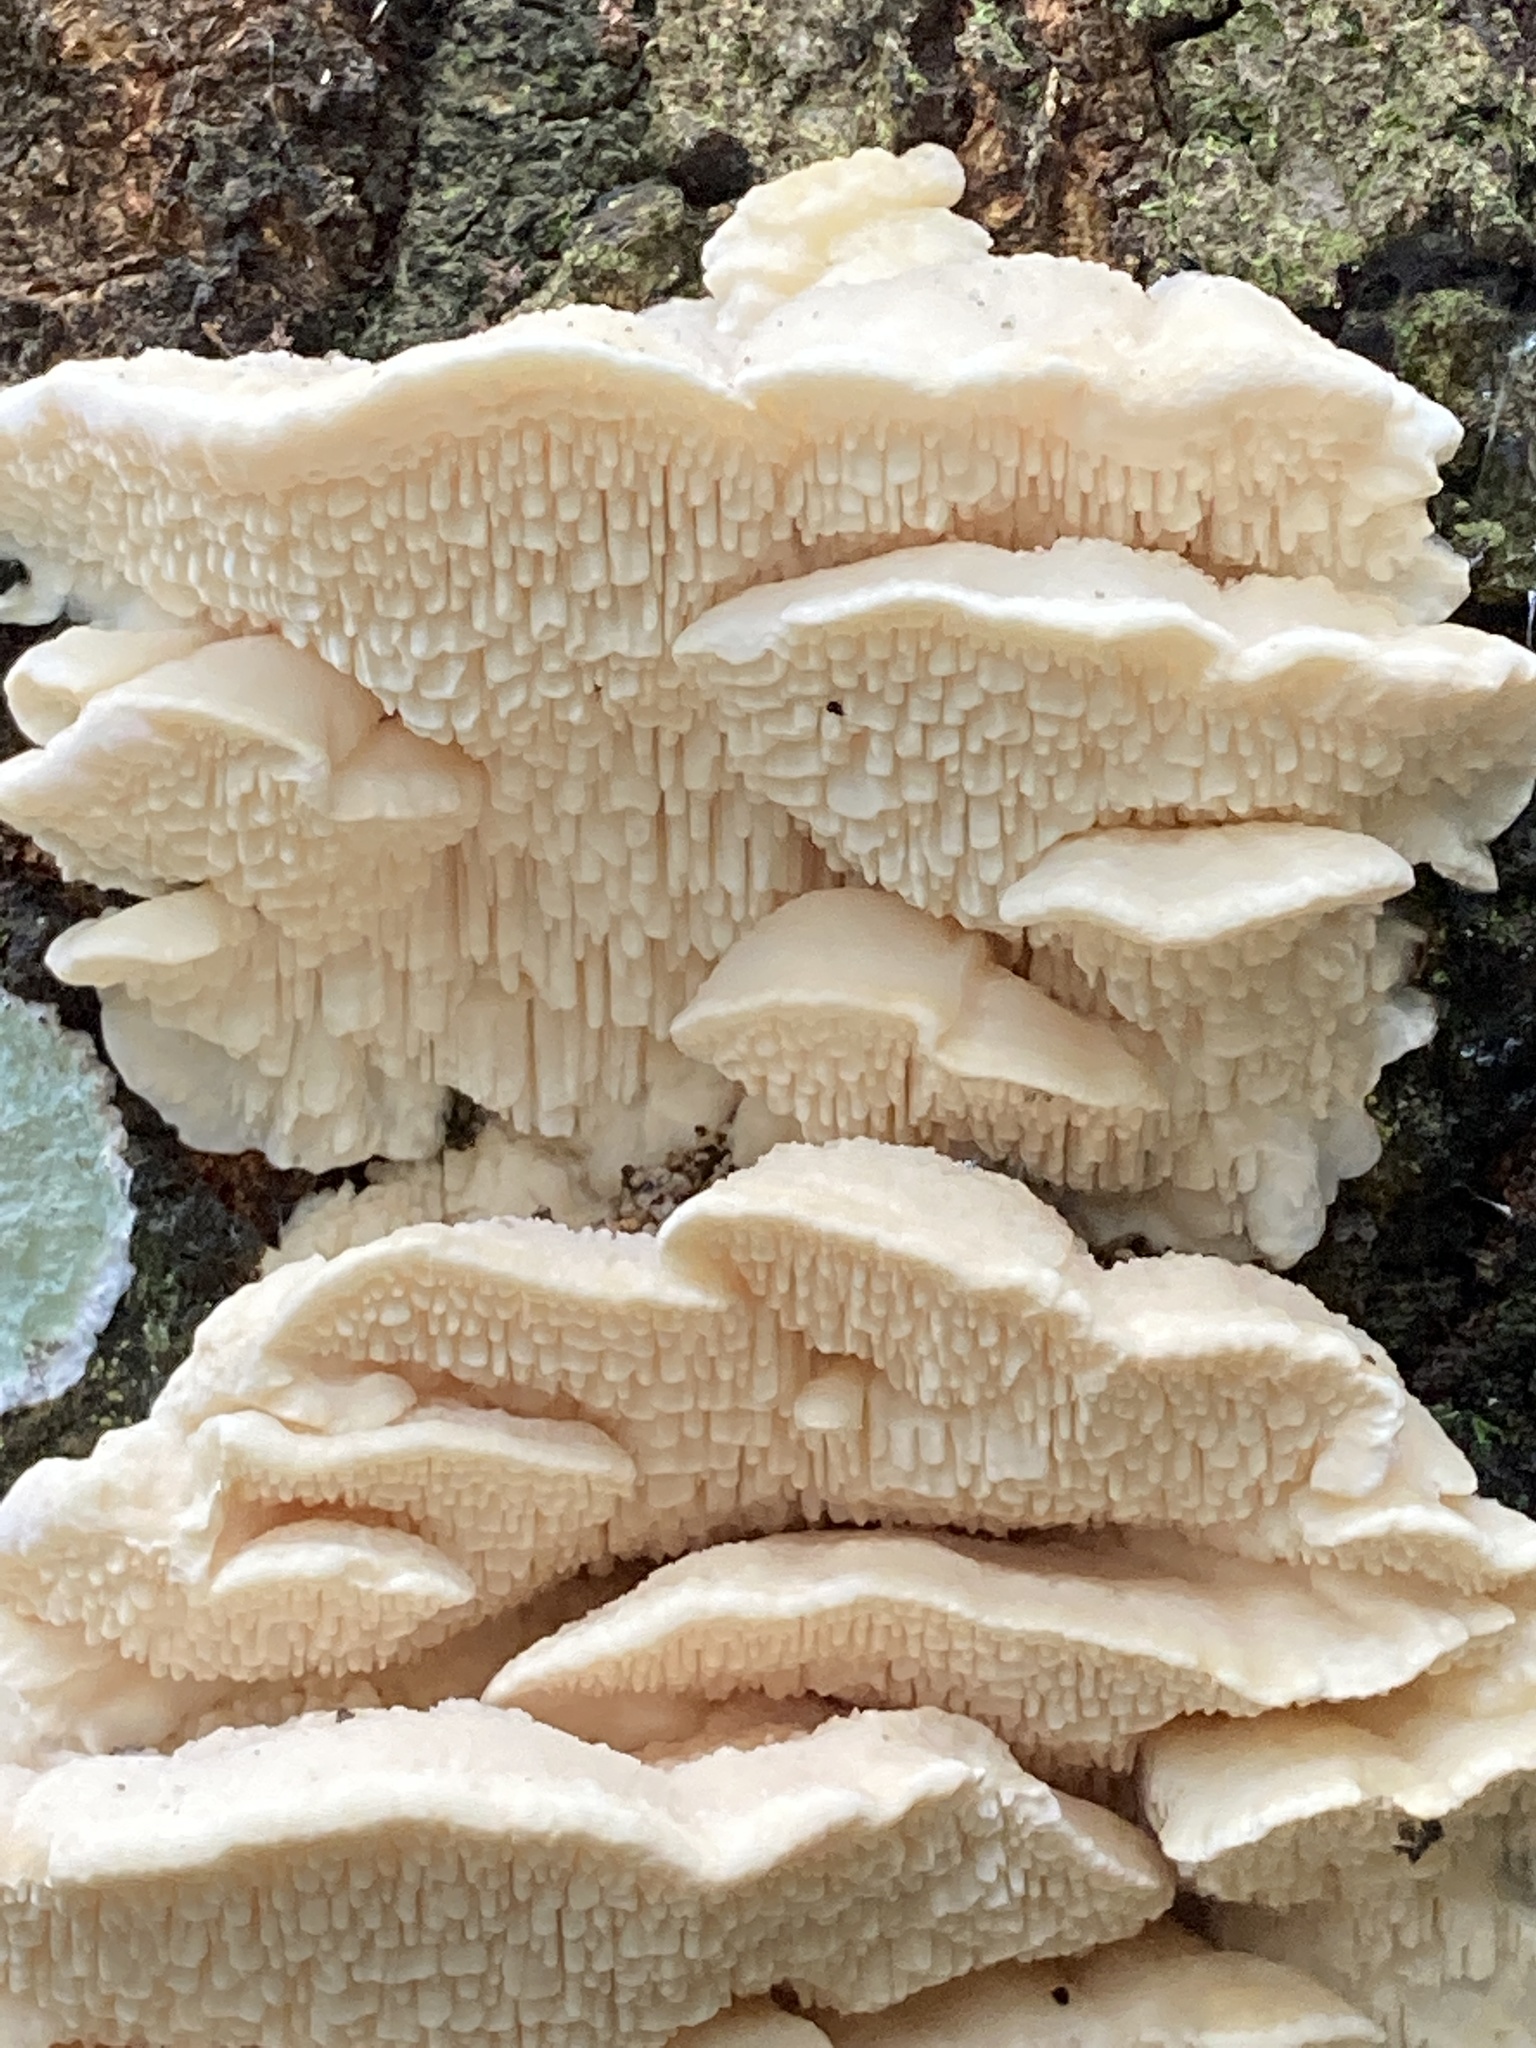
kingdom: Fungi
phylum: Basidiomycota
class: Agaricomycetes
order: Polyporales
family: Meruliaceae
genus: Irpiciporus
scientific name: Irpiciporus pachyodon
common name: Marshmallow polypore
